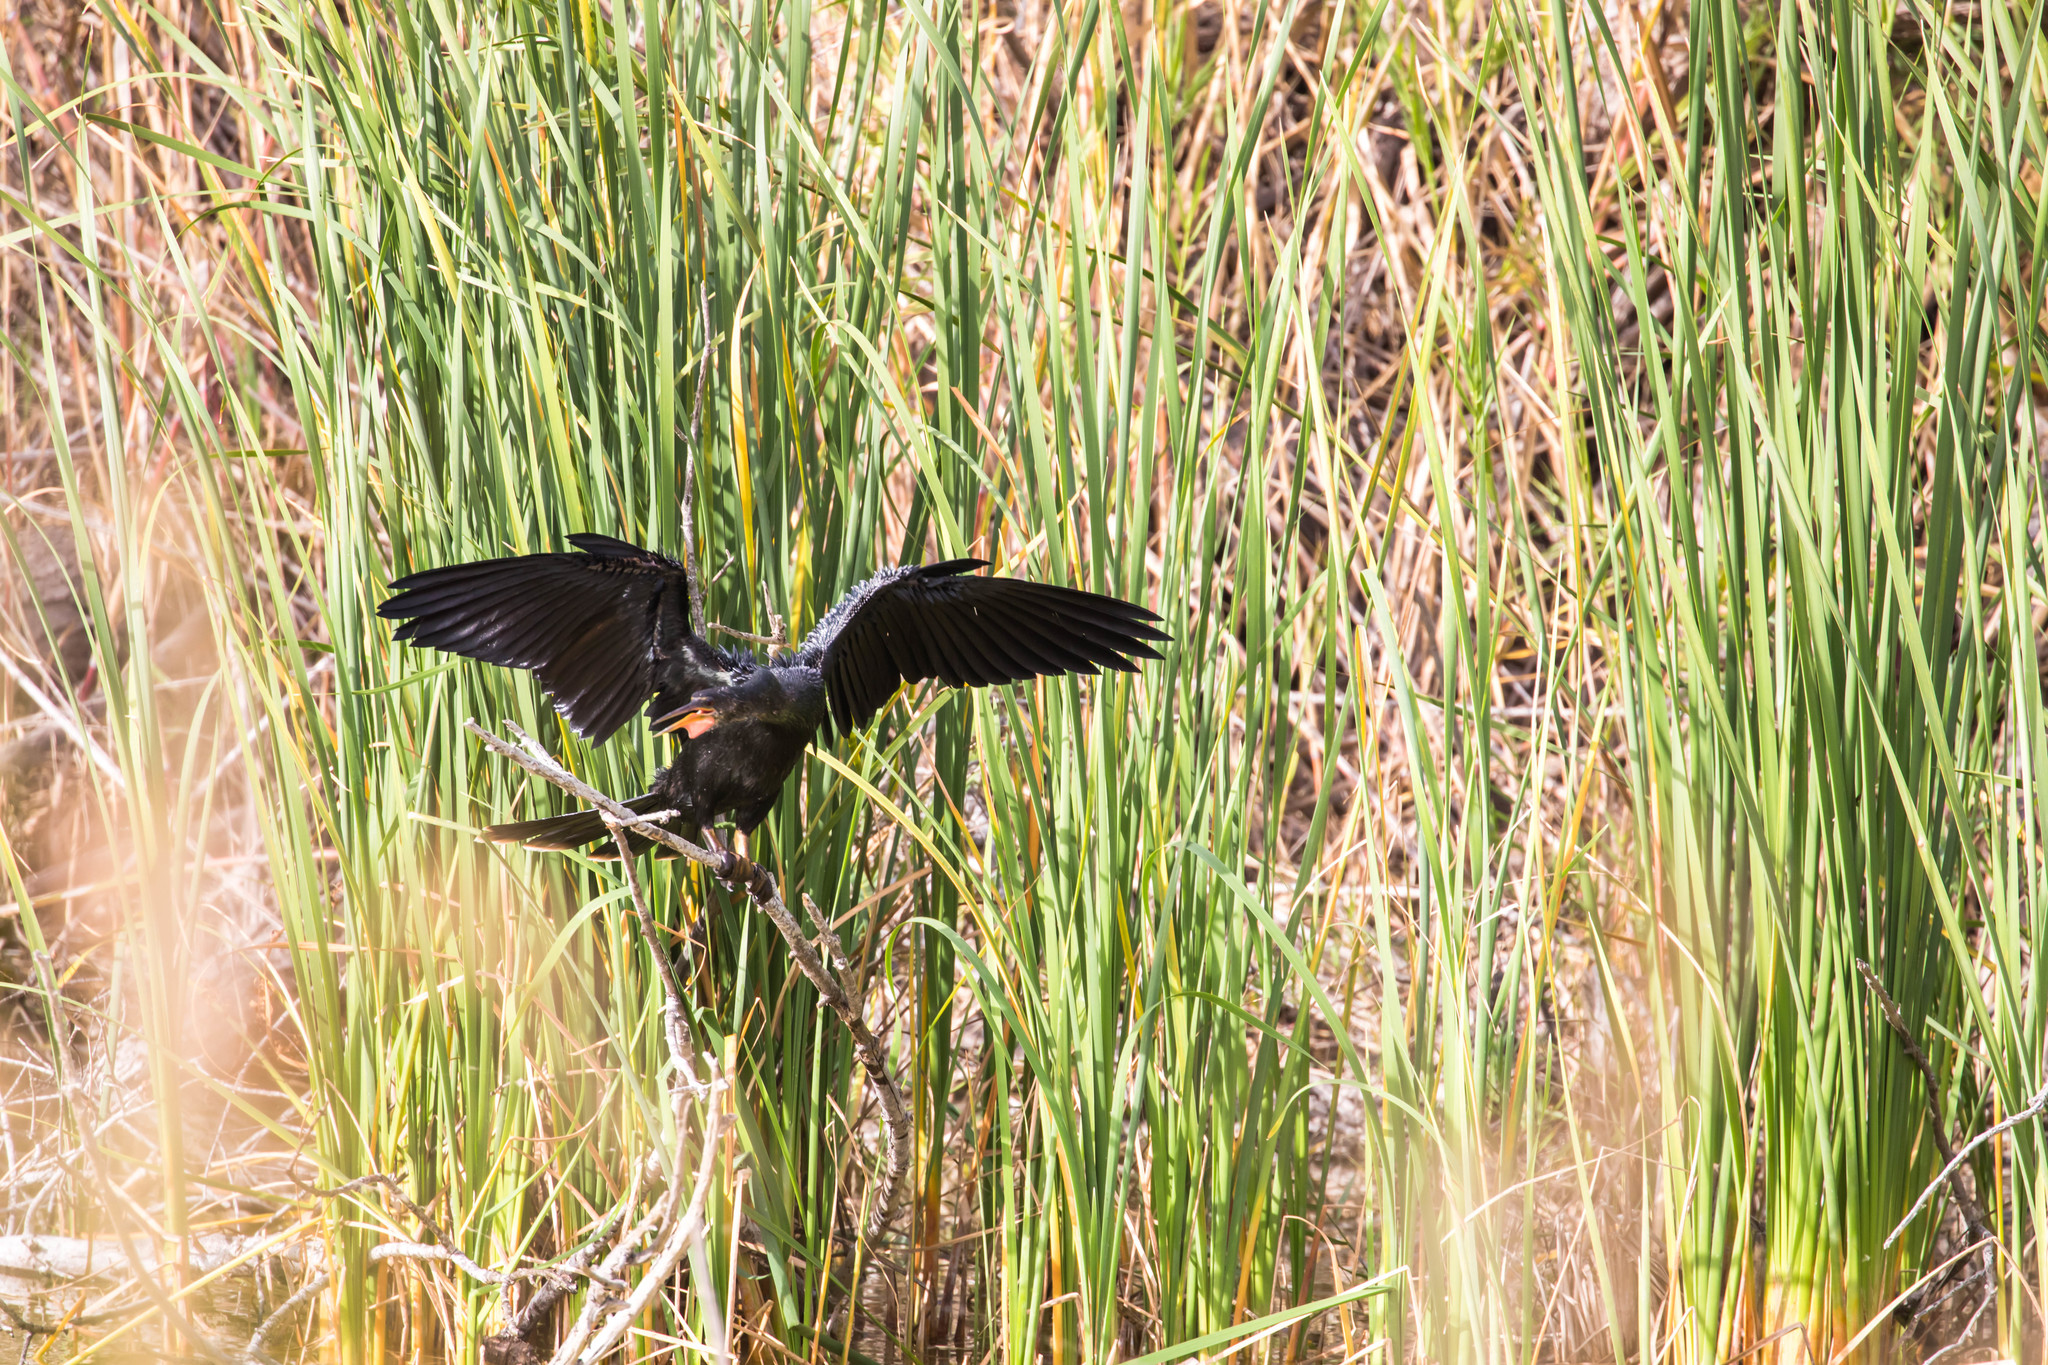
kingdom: Animalia
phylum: Chordata
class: Aves
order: Suliformes
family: Anhingidae
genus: Anhinga
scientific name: Anhinga anhinga
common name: Anhinga
